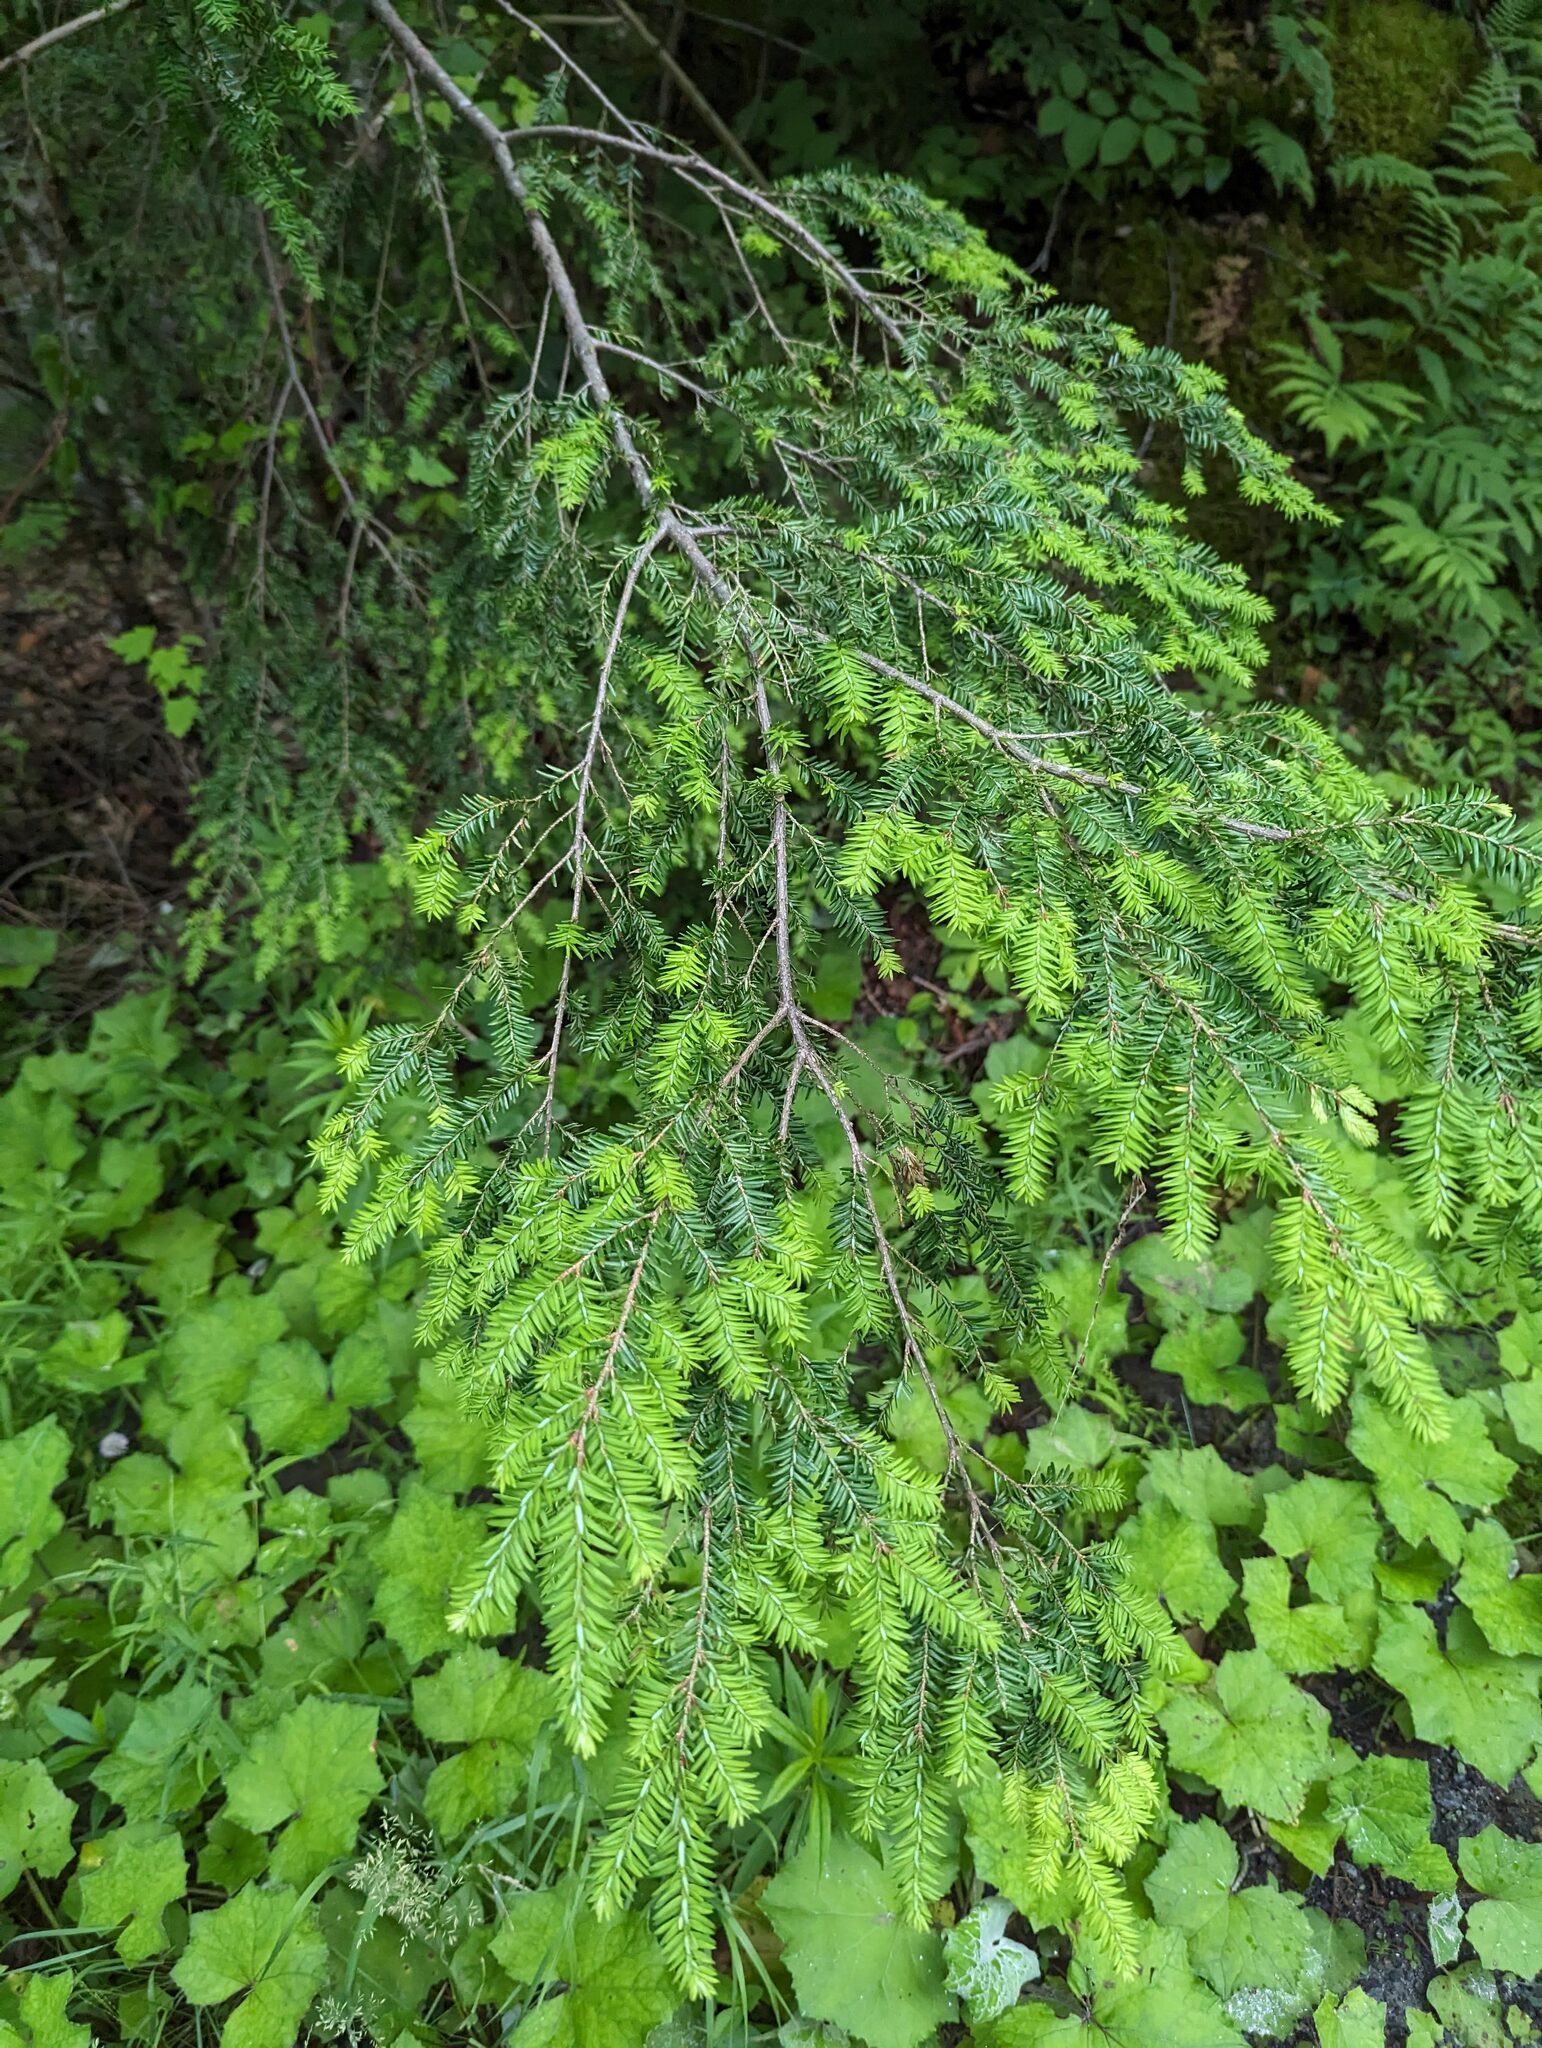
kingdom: Plantae
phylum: Tracheophyta
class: Pinopsida
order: Pinales
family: Pinaceae
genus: Tsuga
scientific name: Tsuga canadensis
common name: Eastern hemlock
